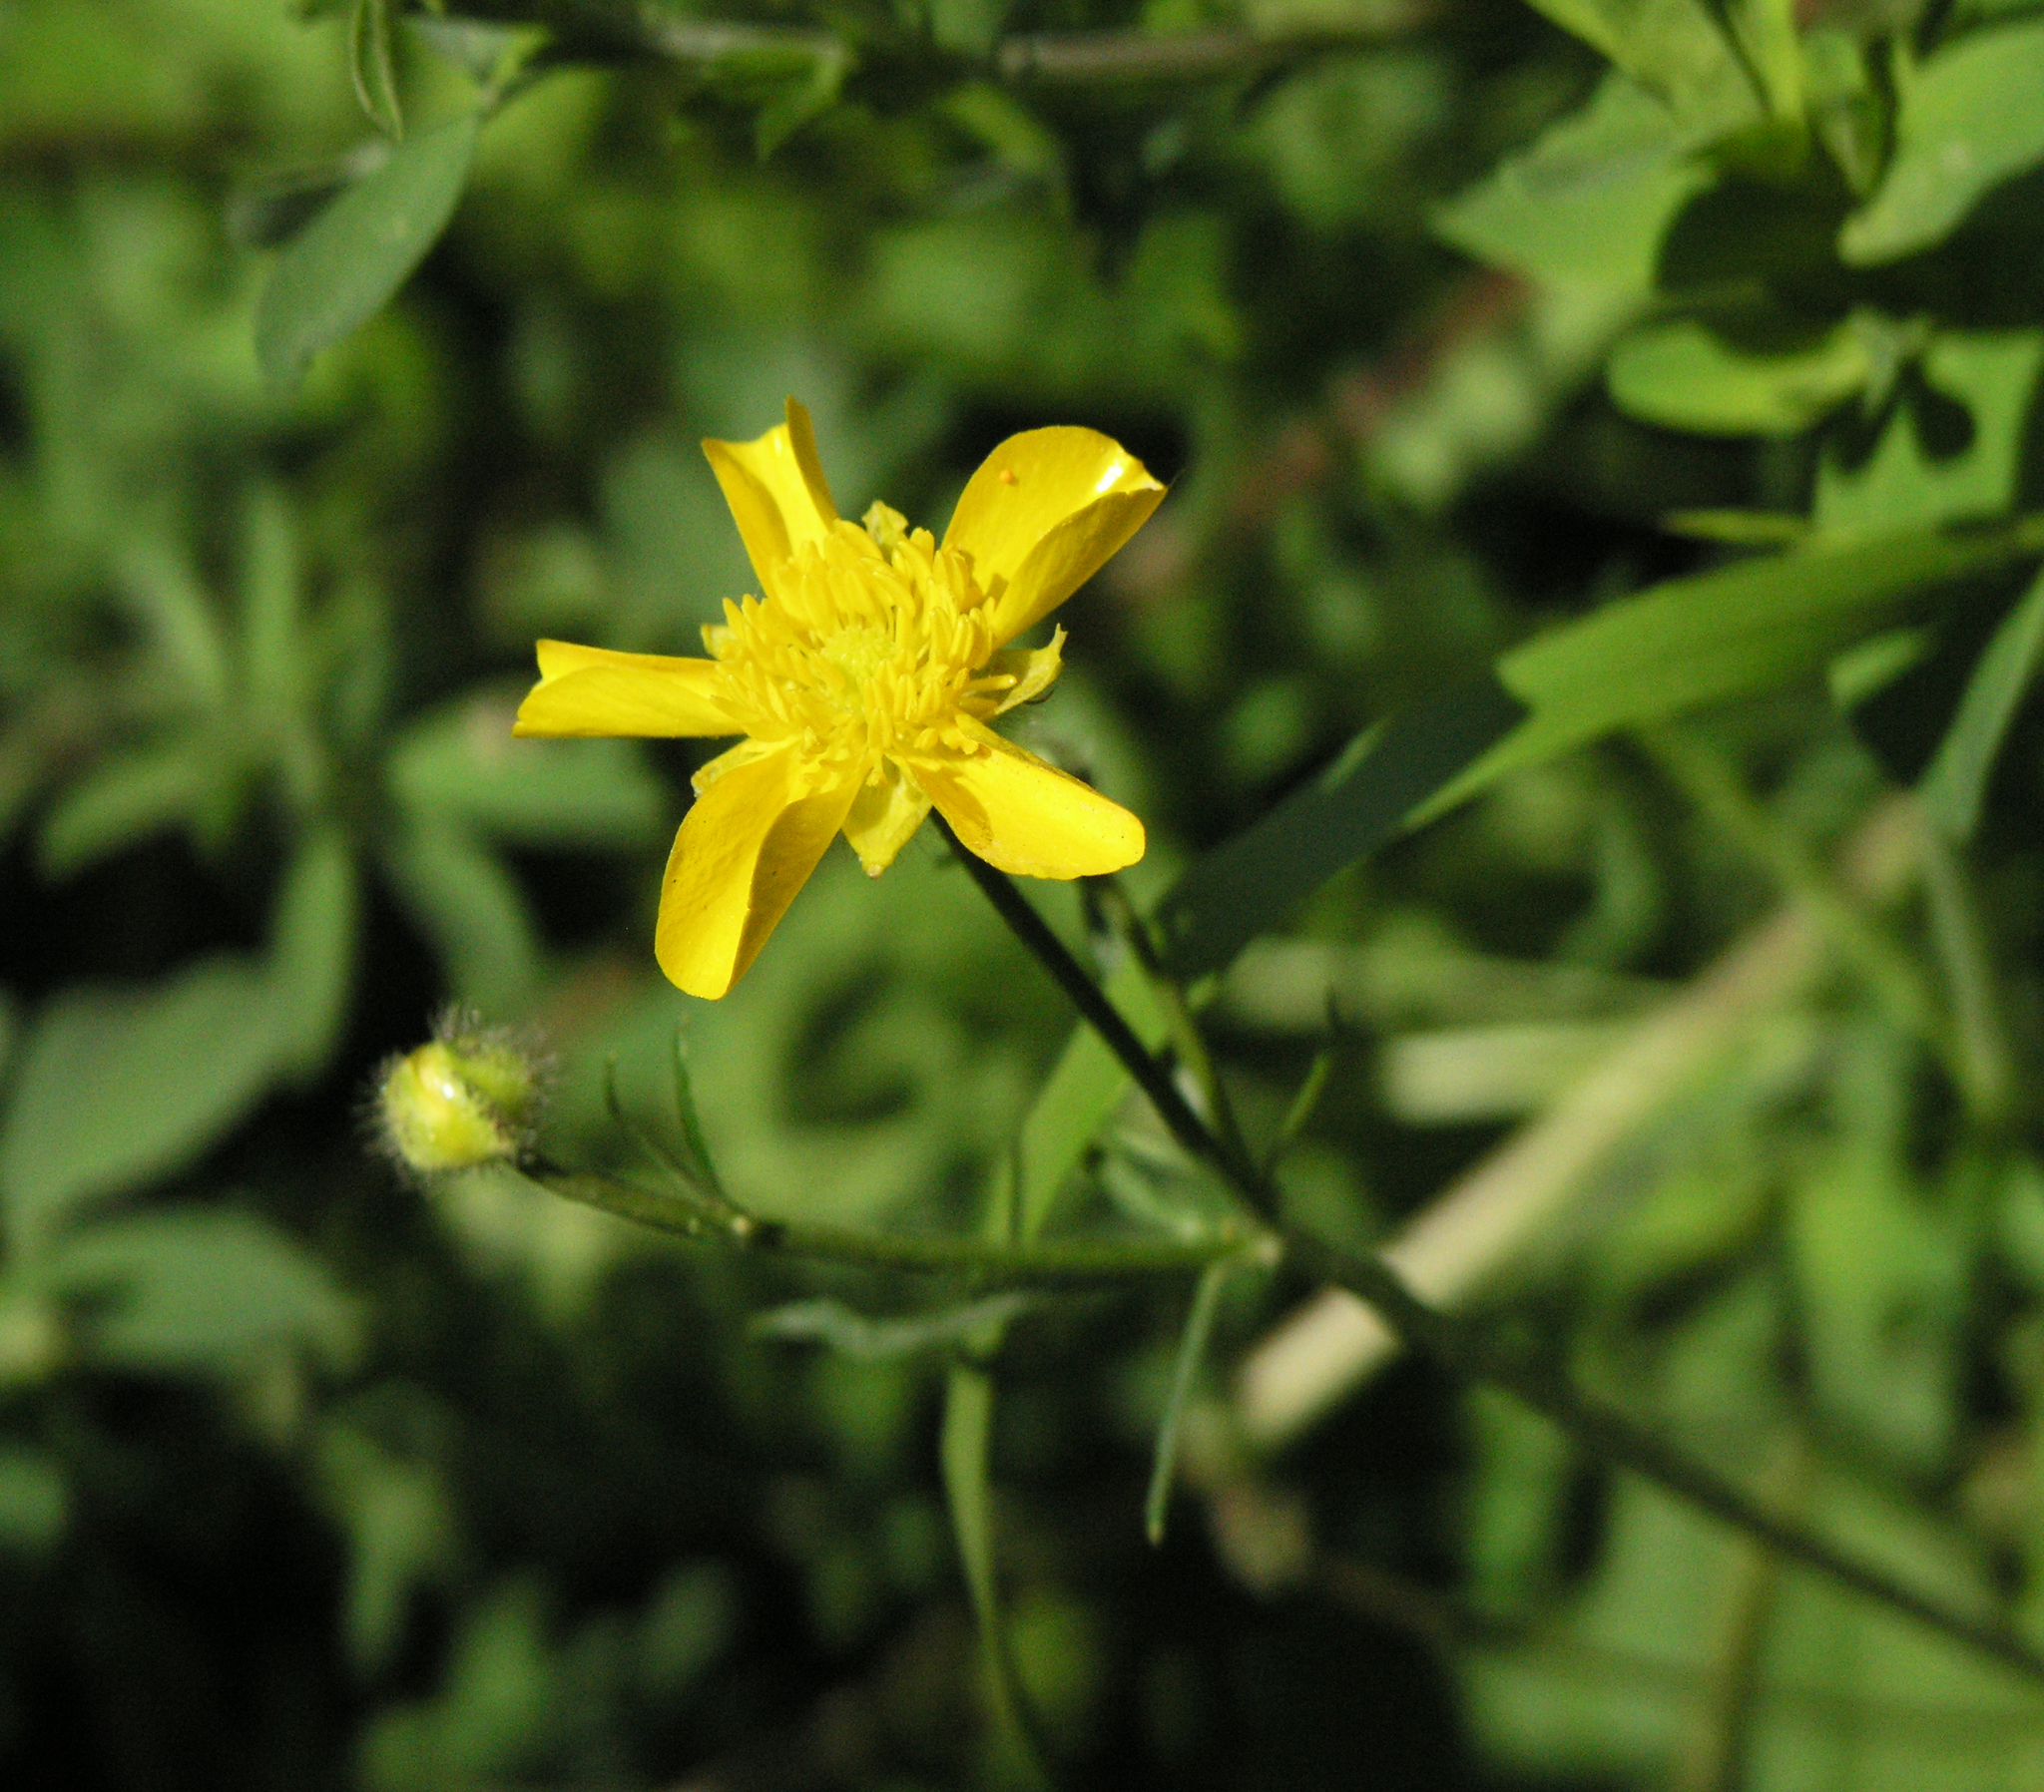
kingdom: Plantae
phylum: Tracheophyta
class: Magnoliopsida
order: Ranunculales
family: Ranunculaceae
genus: Ranunculus
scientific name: Ranunculus polyanthemos
